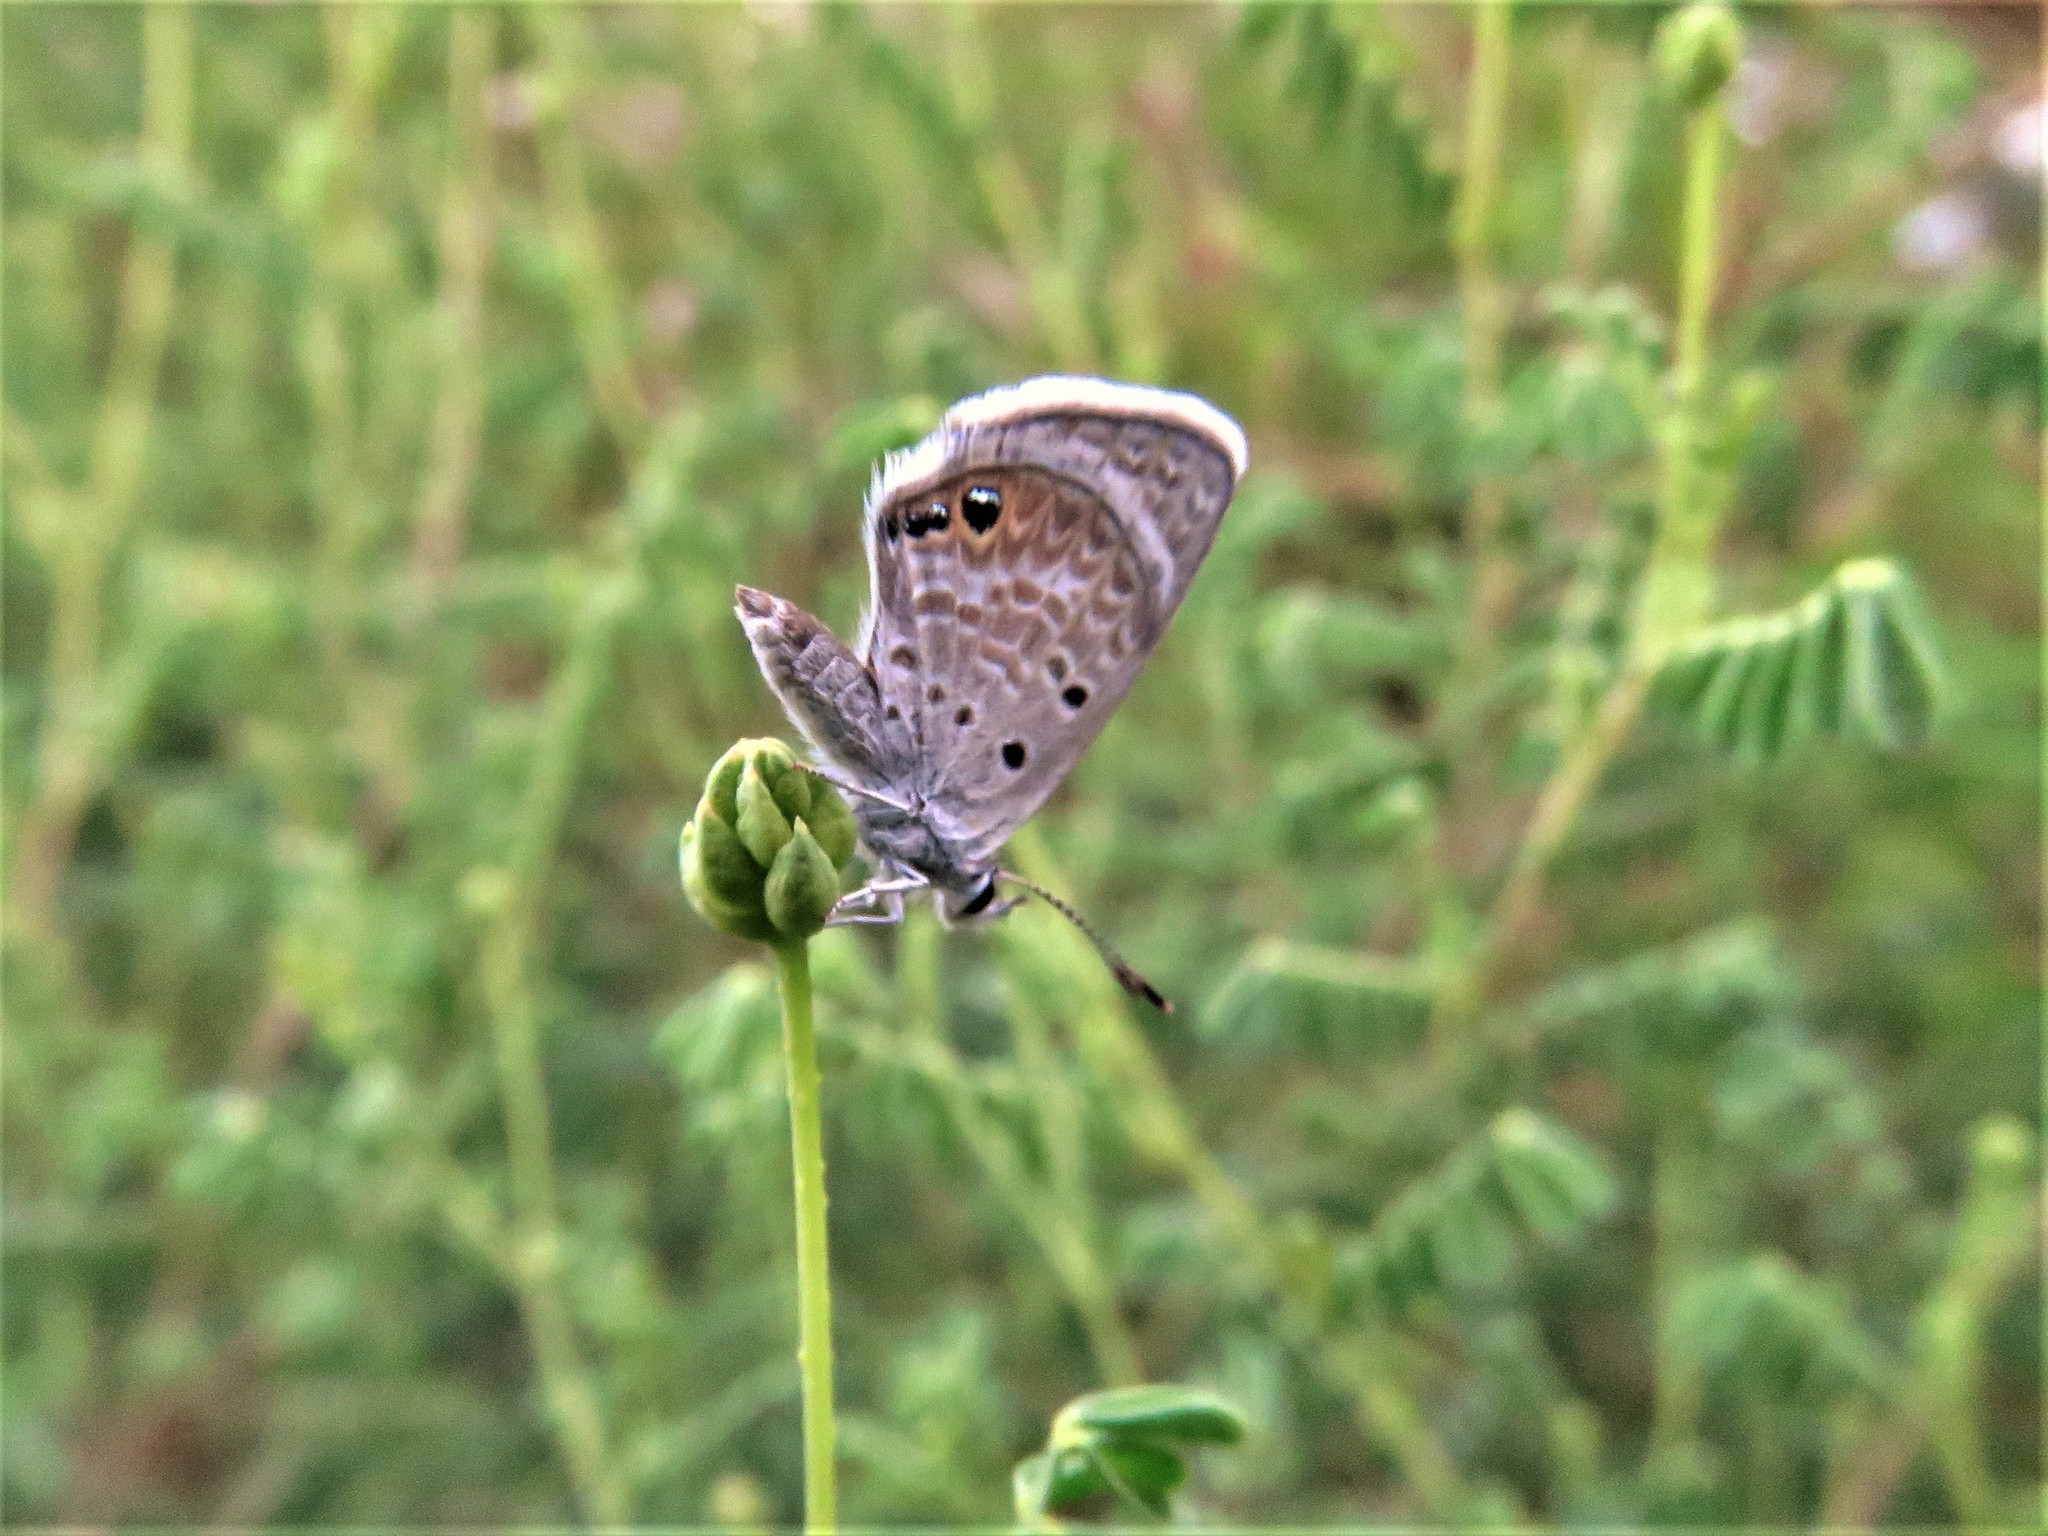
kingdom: Animalia
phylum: Arthropoda
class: Insecta
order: Lepidoptera
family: Lycaenidae
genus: Echinargus
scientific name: Echinargus isola
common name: Reakirt's blue
